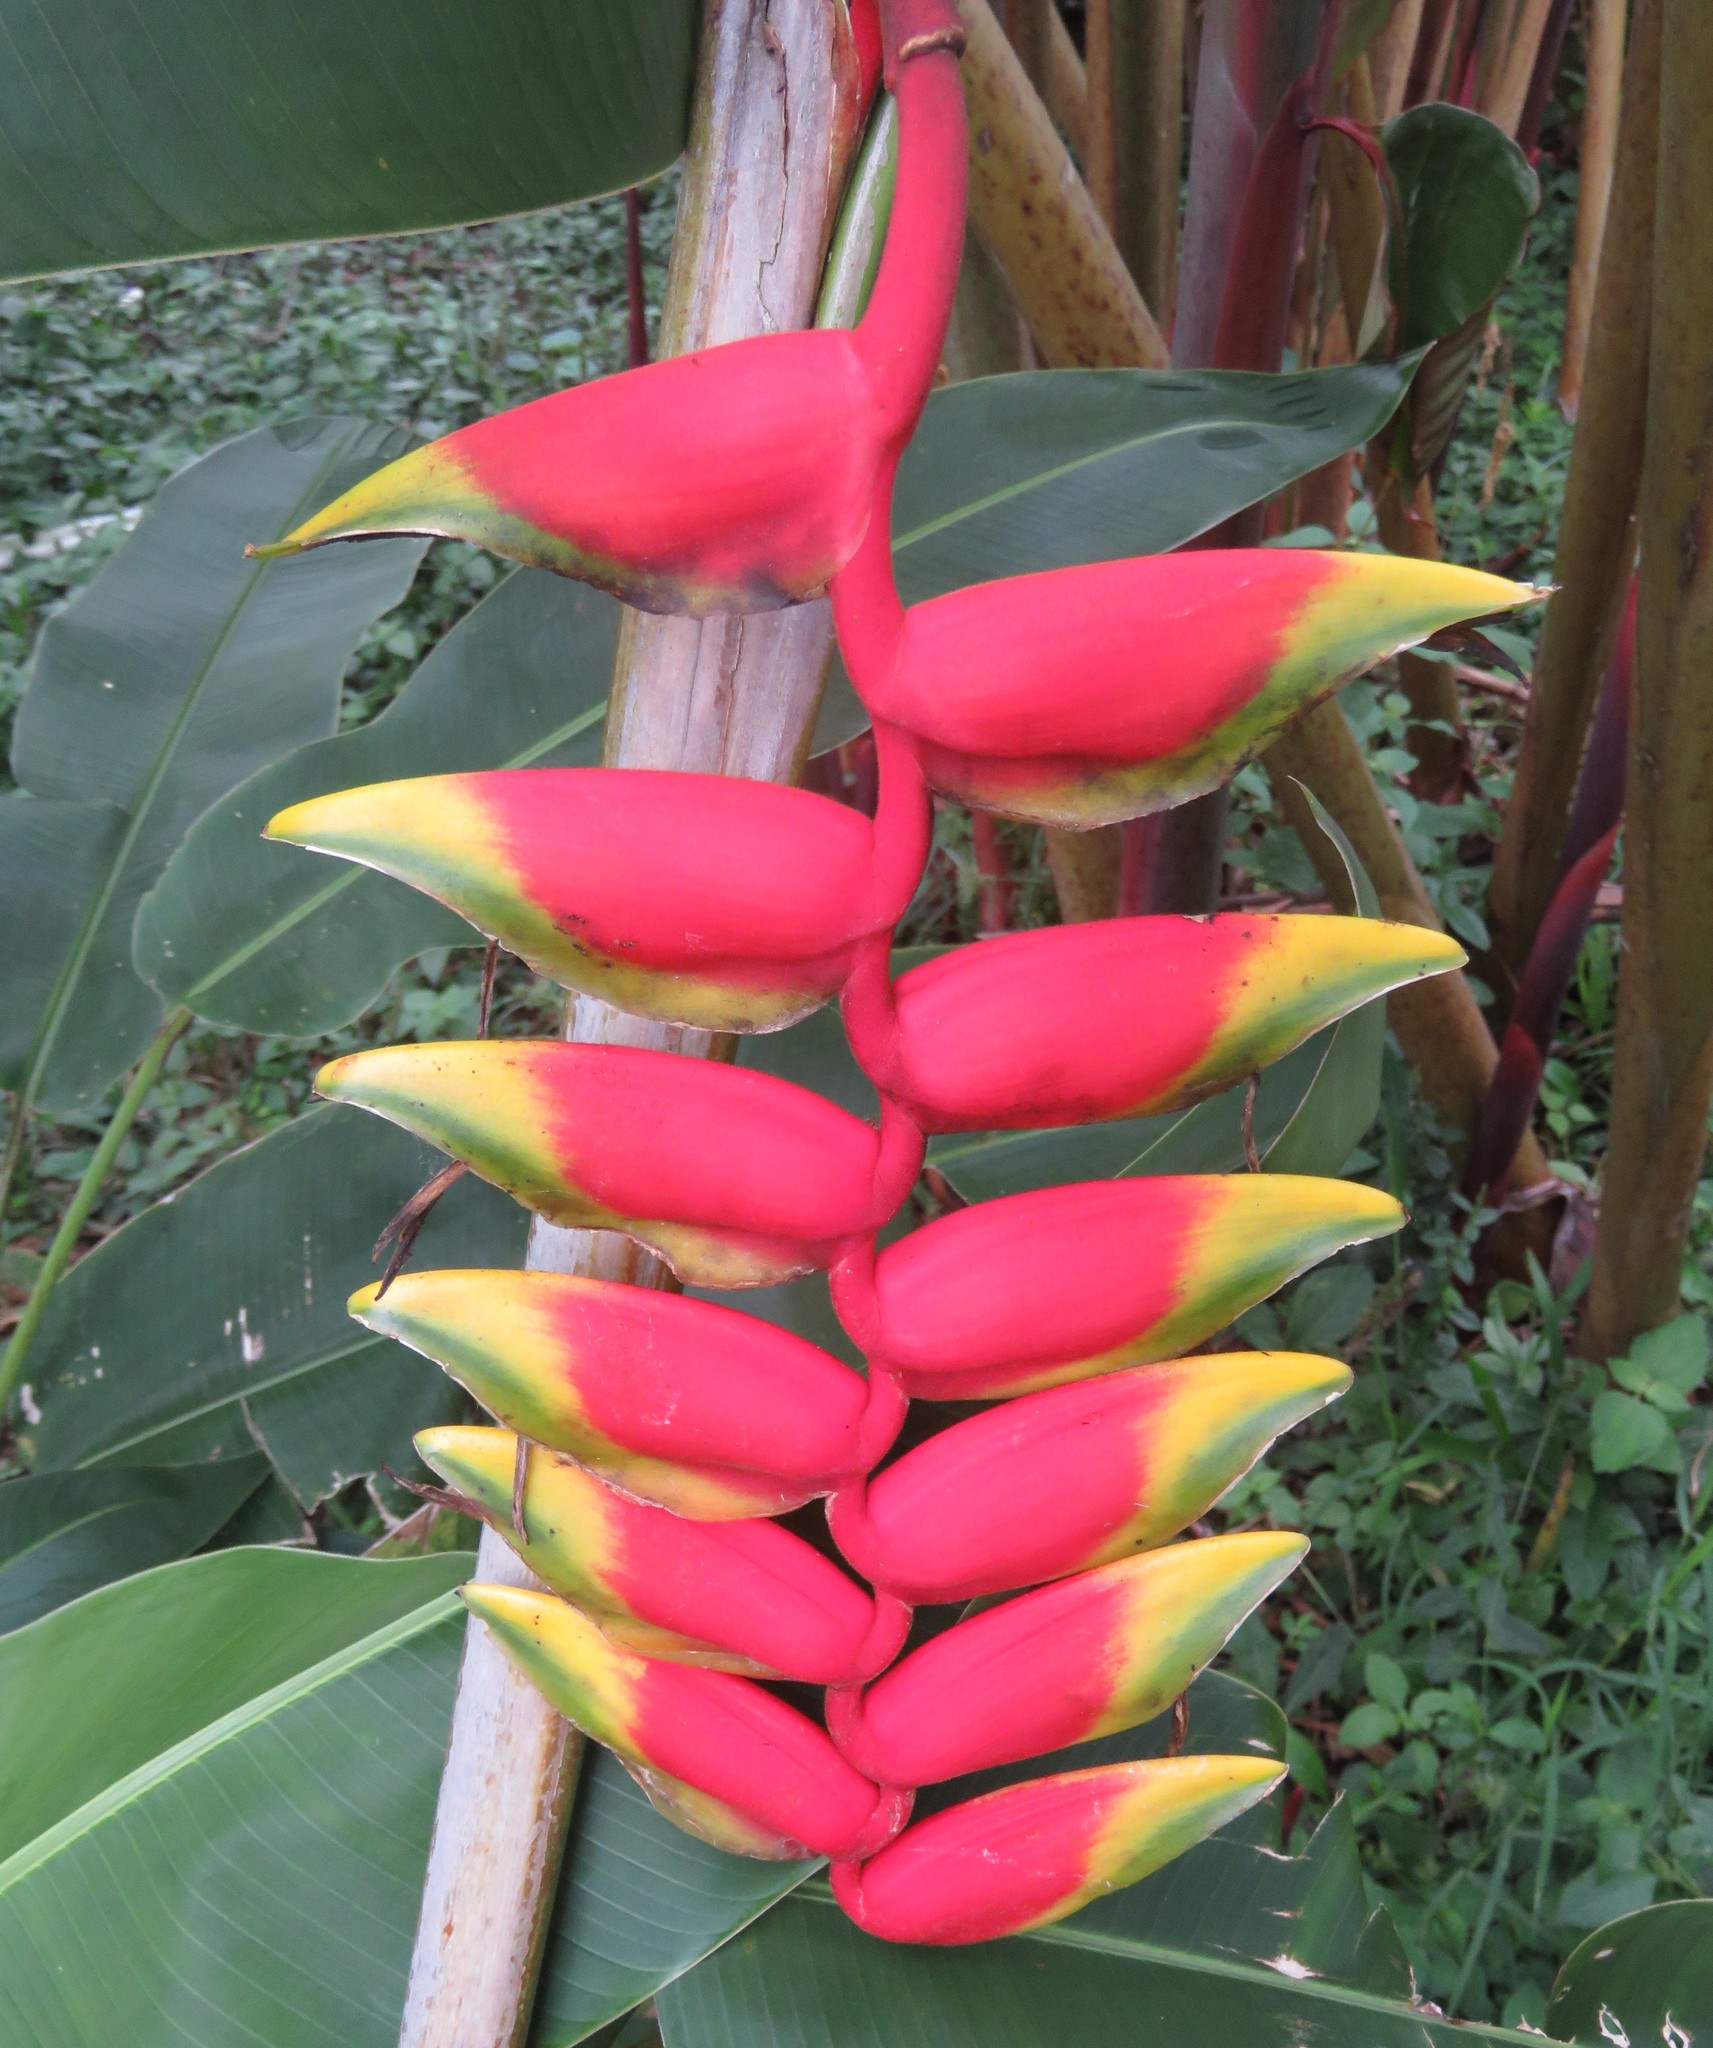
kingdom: Plantae
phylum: Tracheophyta
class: Liliopsida
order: Zingiberales
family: Heliconiaceae
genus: Heliconia
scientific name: Heliconia rostrata
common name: False bird of paradise
